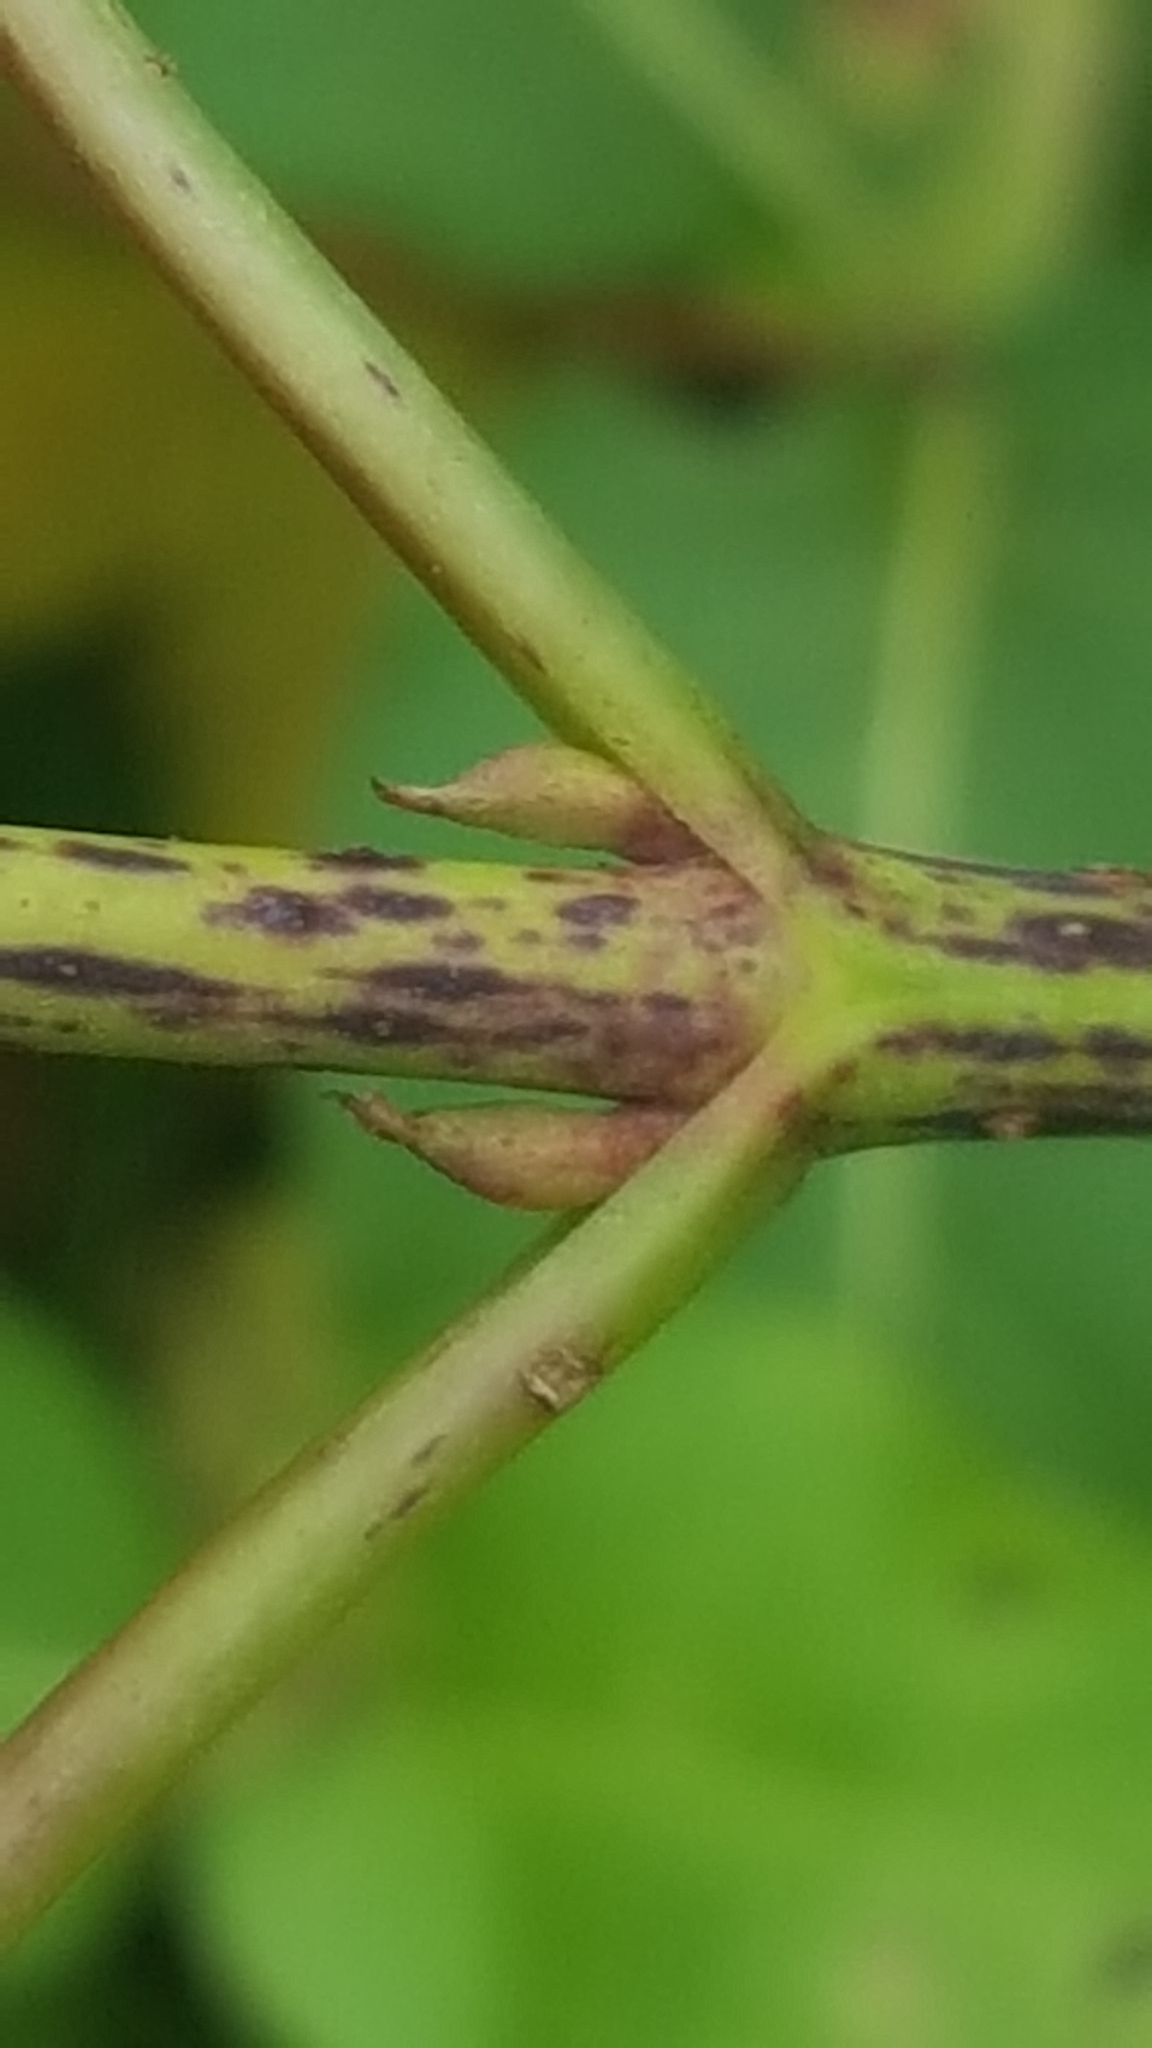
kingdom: Plantae
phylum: Tracheophyta
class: Magnoliopsida
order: Cornales
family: Cornaceae
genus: Cornus
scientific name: Cornus rugosa
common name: Round-leaf dogwood
